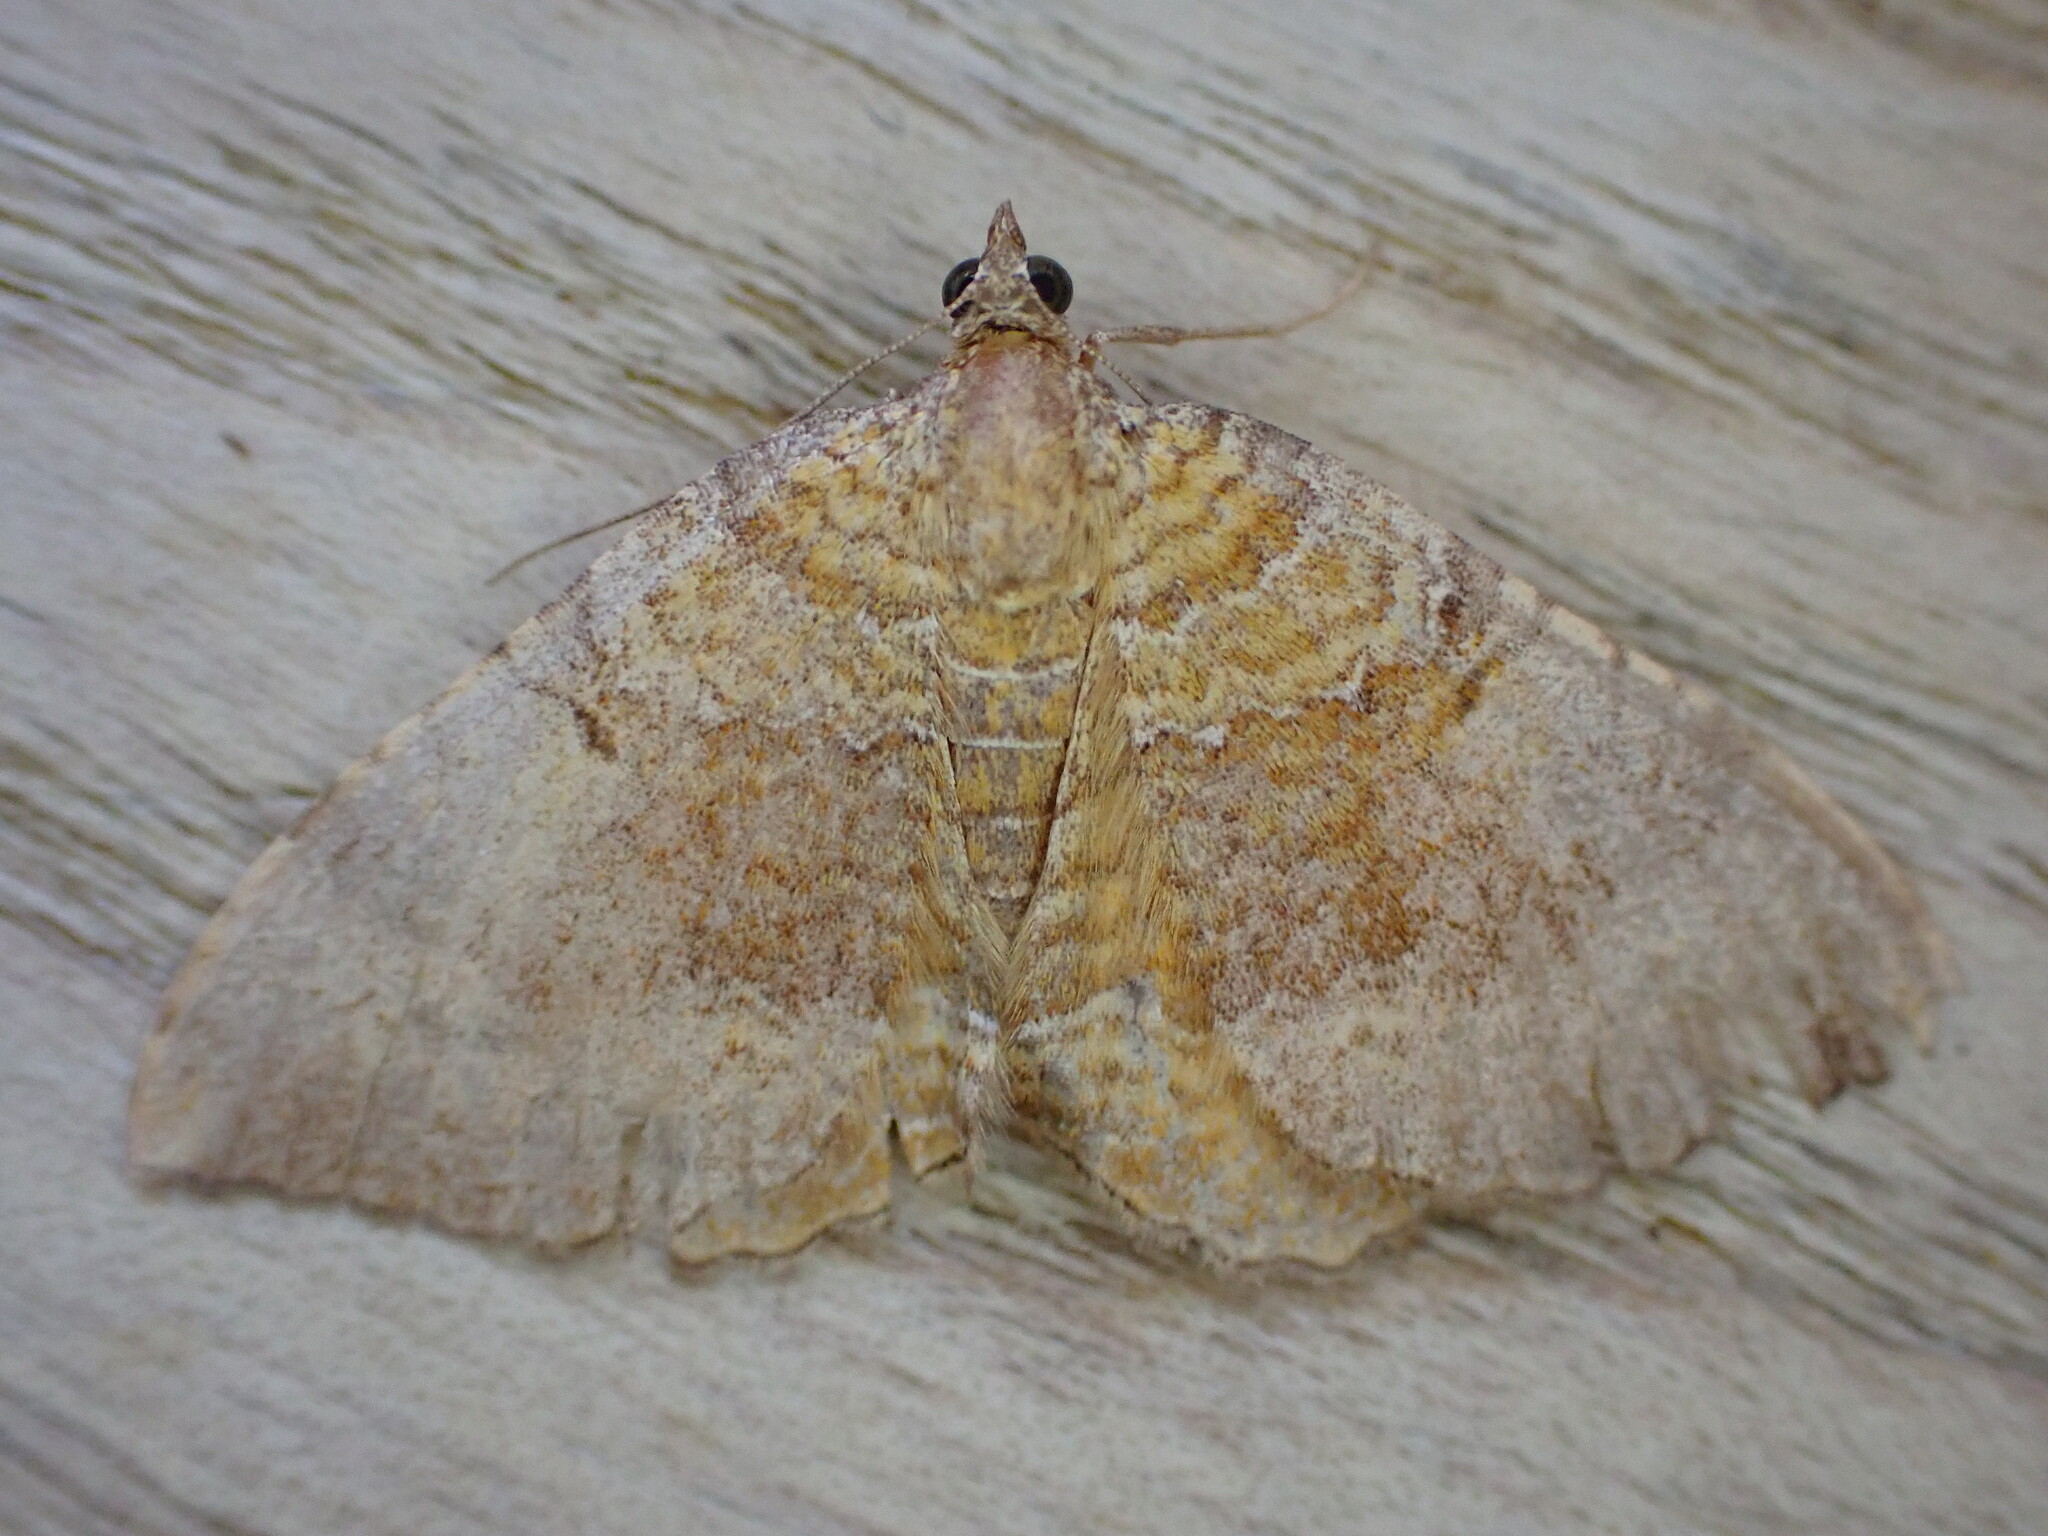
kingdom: Animalia
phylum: Arthropoda
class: Insecta
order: Lepidoptera
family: Geometridae
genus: Camptogramma
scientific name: Camptogramma bilineata
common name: Yellow shell
